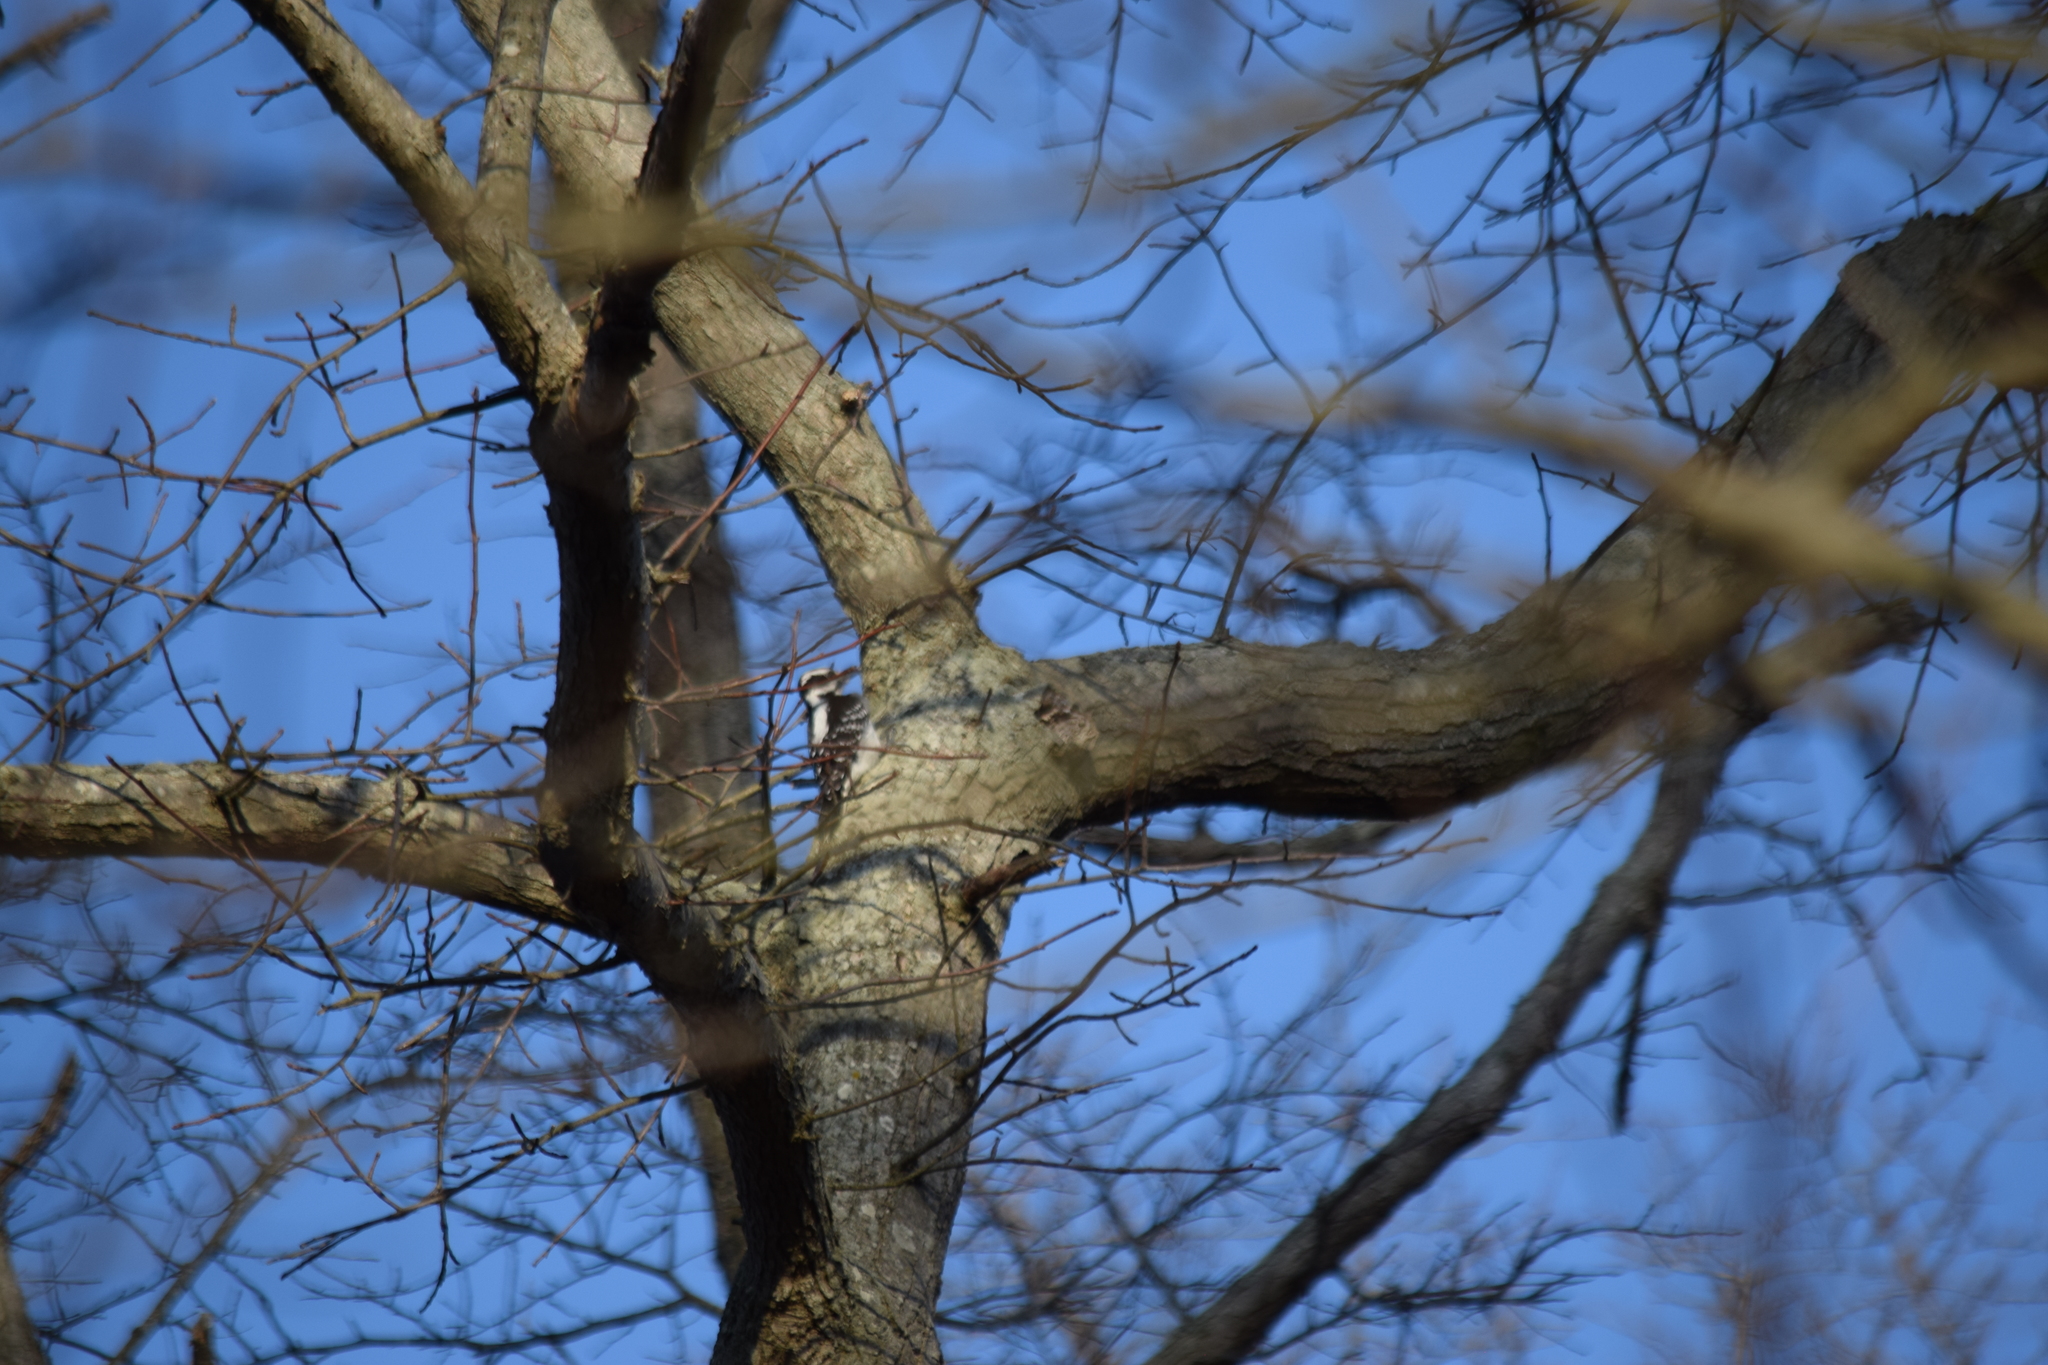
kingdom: Animalia
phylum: Chordata
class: Aves
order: Piciformes
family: Picidae
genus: Leuconotopicus
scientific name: Leuconotopicus villosus
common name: Hairy woodpecker
